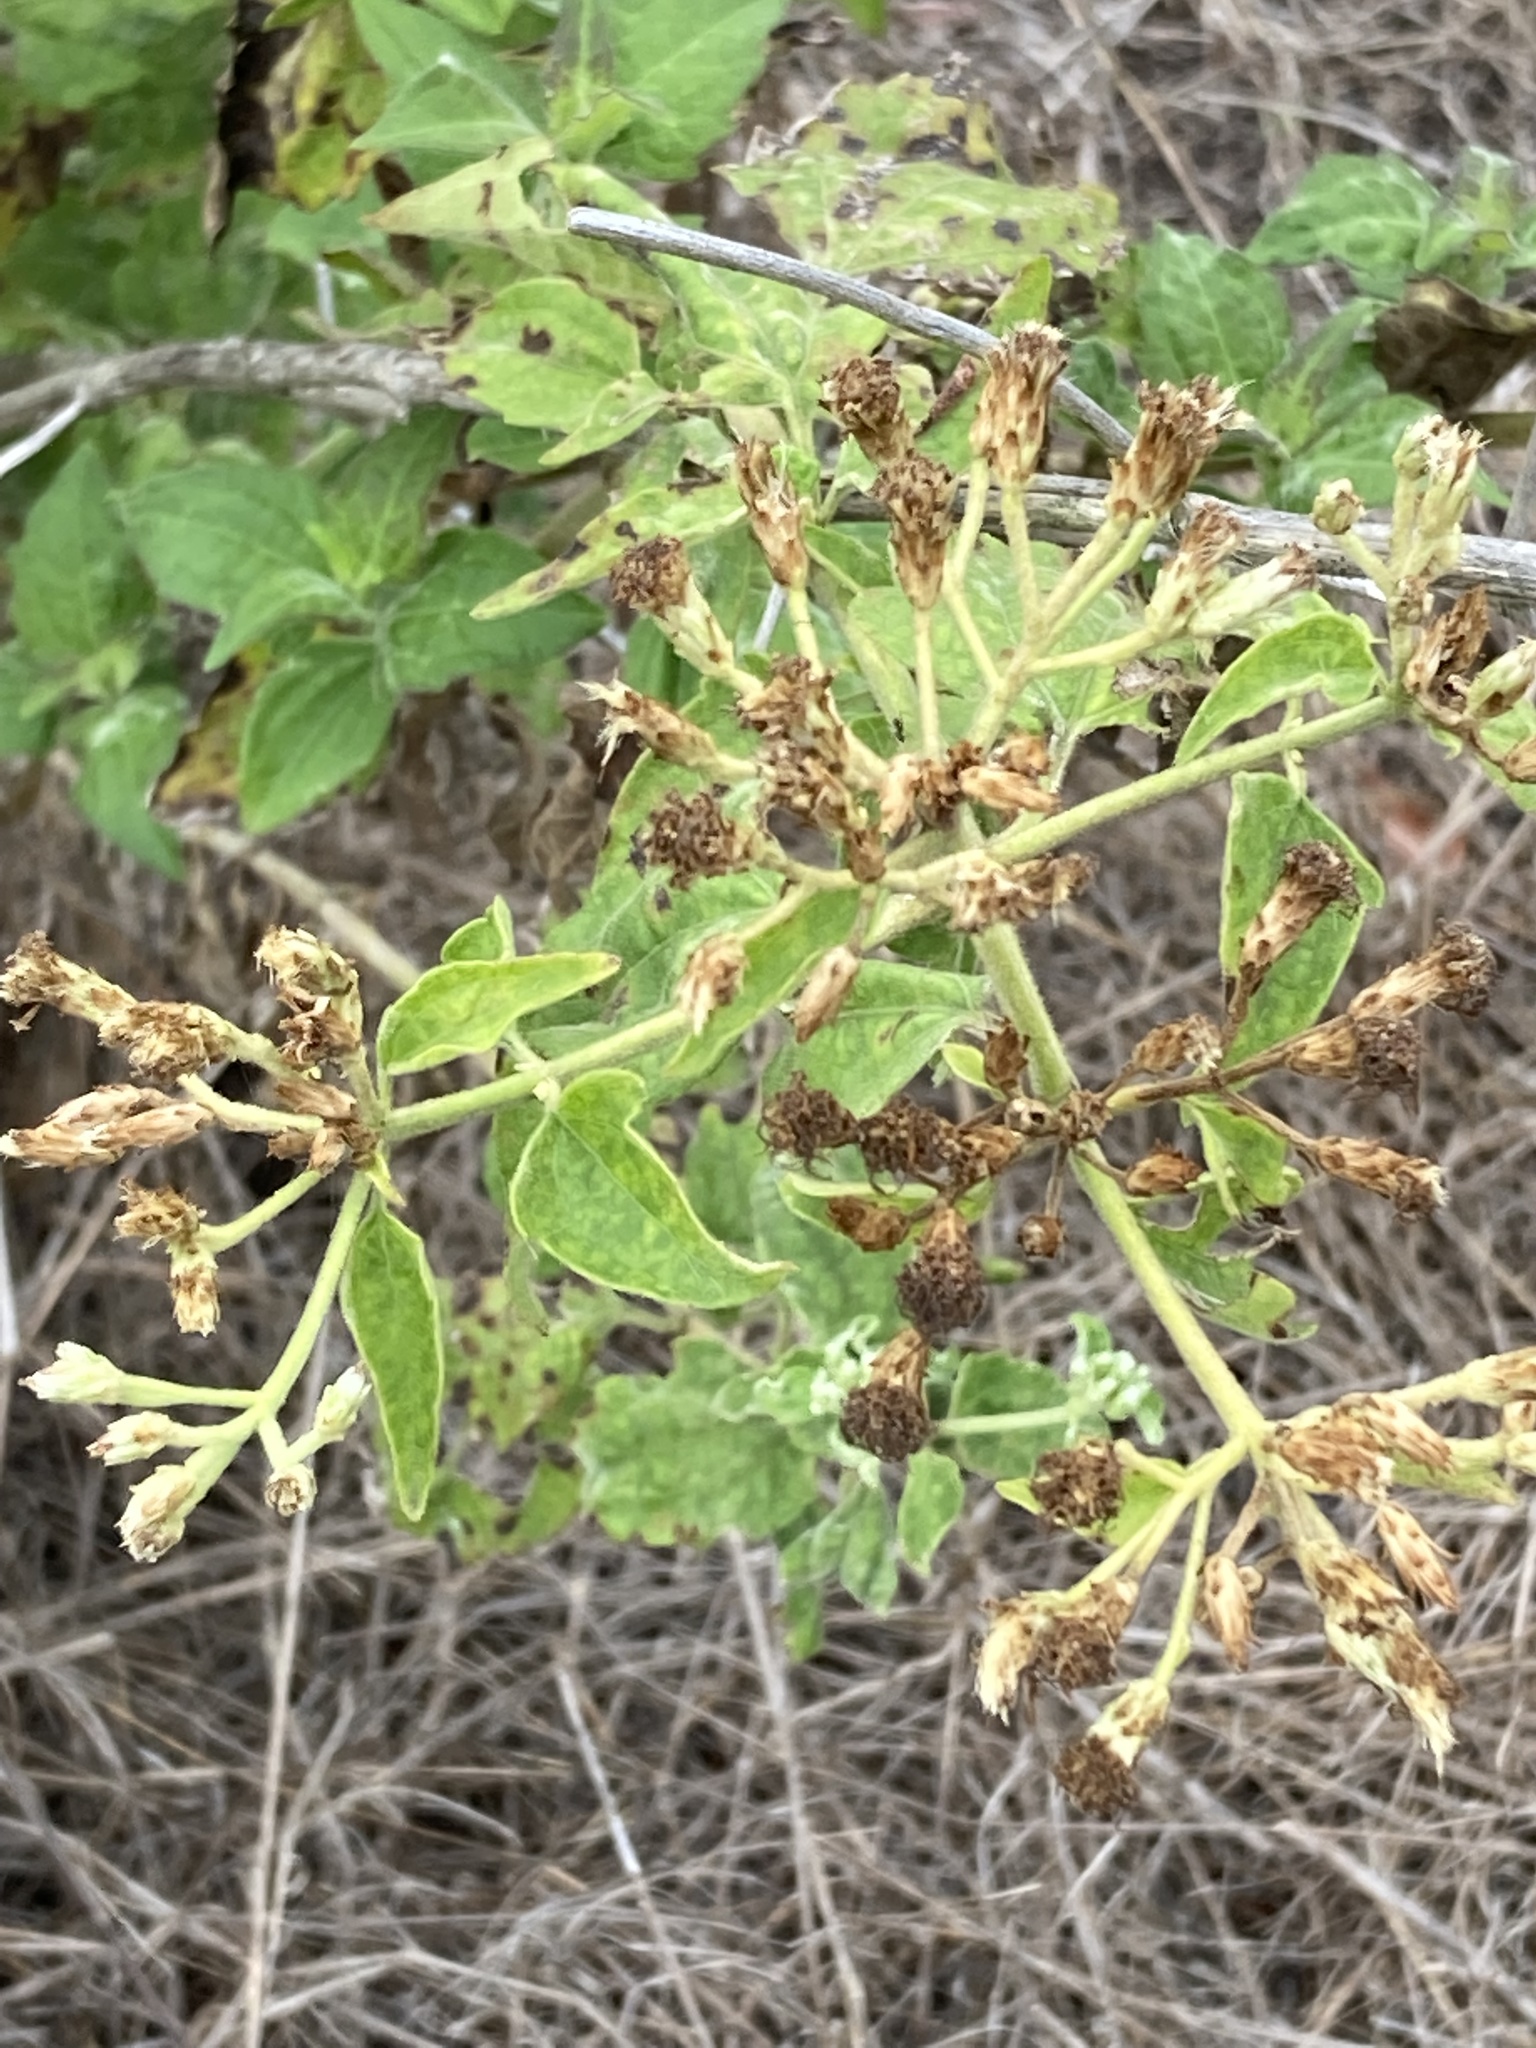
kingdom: Plantae
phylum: Tracheophyta
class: Magnoliopsida
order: Asterales
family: Asteraceae
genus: Chromolaena
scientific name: Chromolaena odorata
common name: Siamweed
